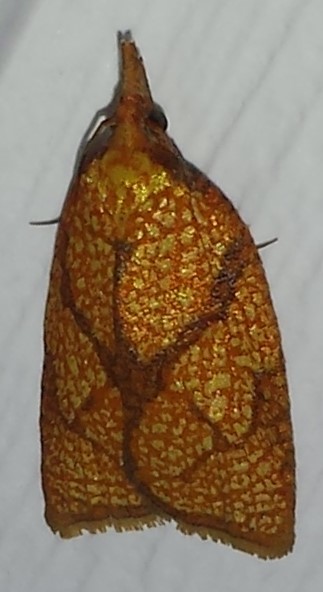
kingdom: Animalia
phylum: Arthropoda
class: Insecta
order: Lepidoptera
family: Tortricidae
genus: Cenopis
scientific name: Cenopis reticulatana
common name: Reticulated fruitworm moth
